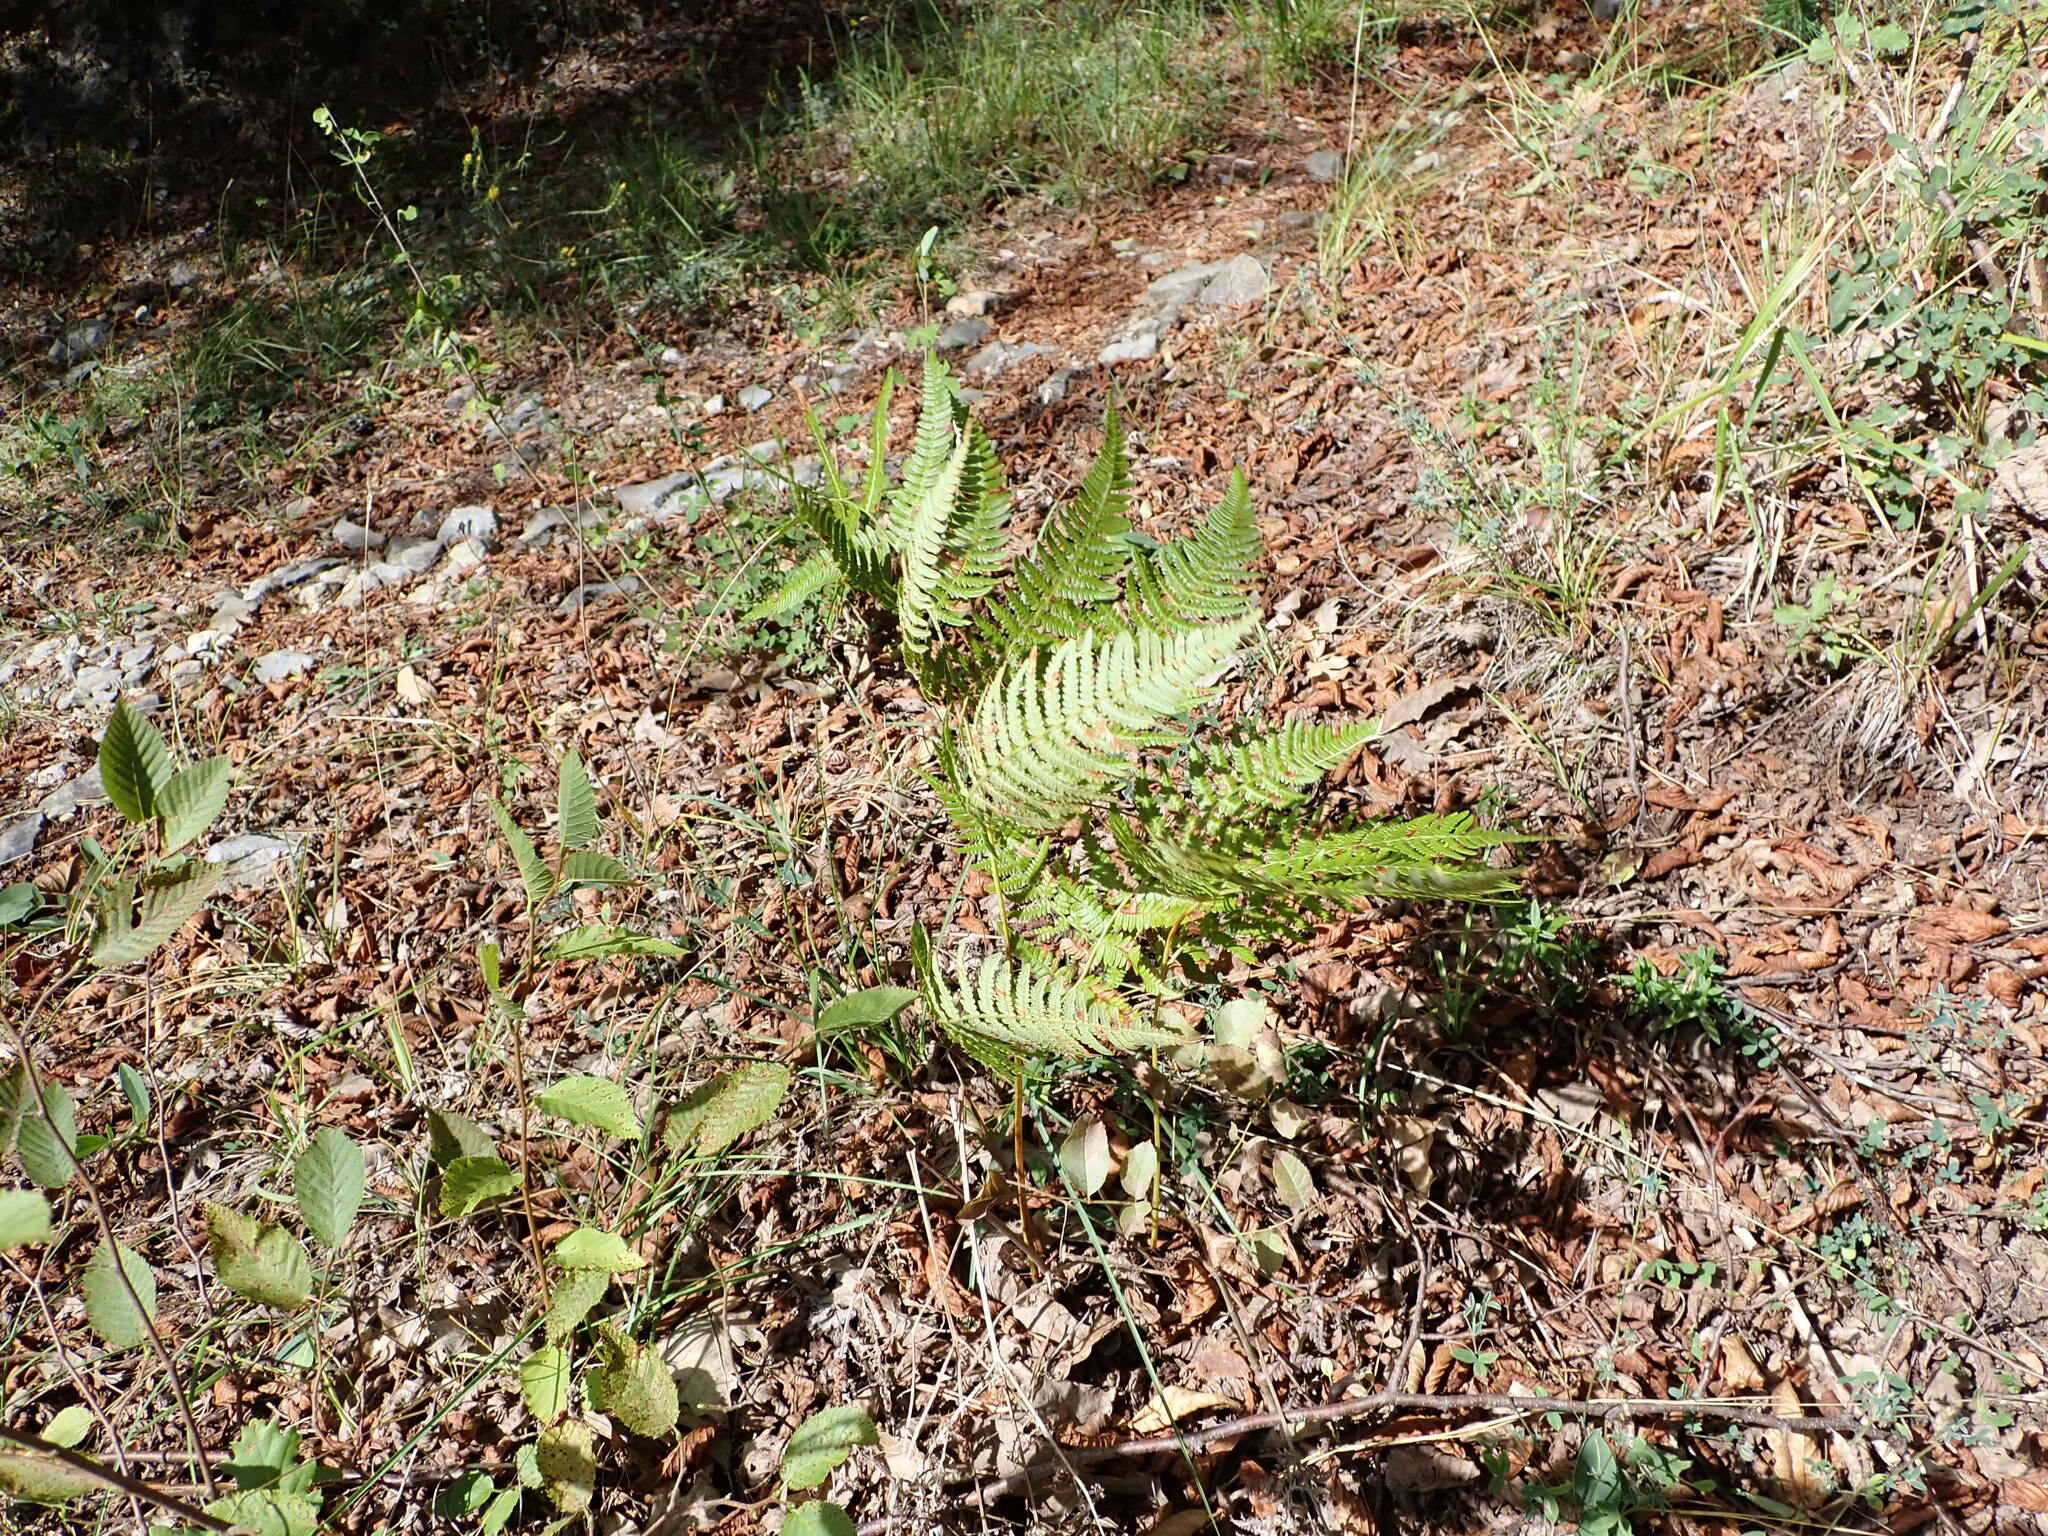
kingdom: Plantae
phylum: Tracheophyta
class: Polypodiopsida
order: Polypodiales
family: Dennstaedtiaceae
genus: Pteridium
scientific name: Pteridium aquilinum
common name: Bracken
